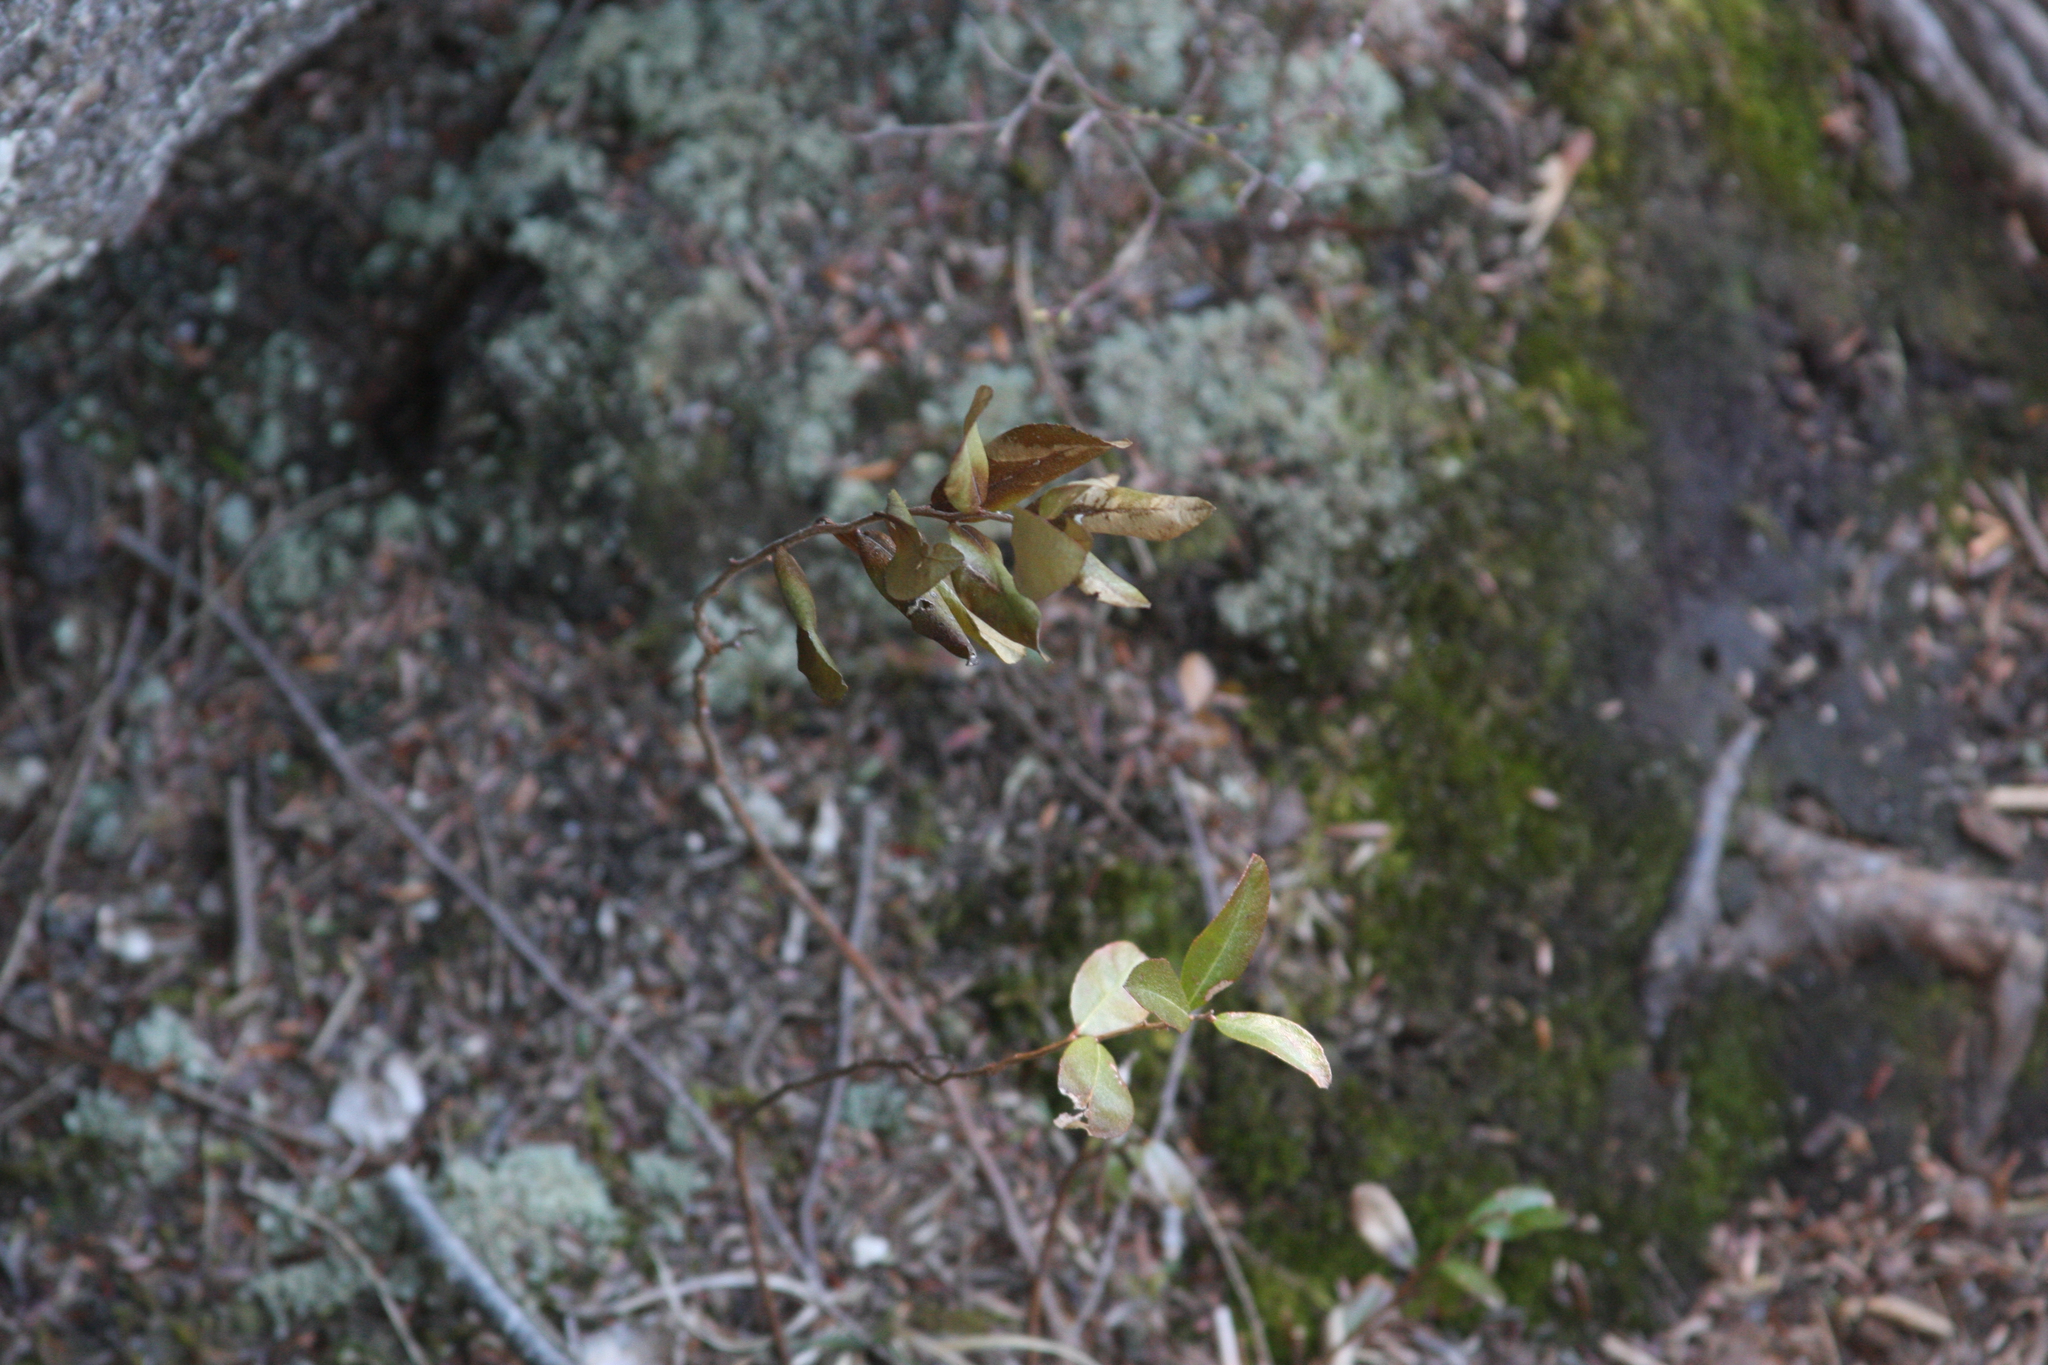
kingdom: Plantae
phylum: Tracheophyta
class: Magnoliopsida
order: Ericales
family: Ericaceae
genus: Chamaedaphne
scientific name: Chamaedaphne calyculata
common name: Leatherleaf
